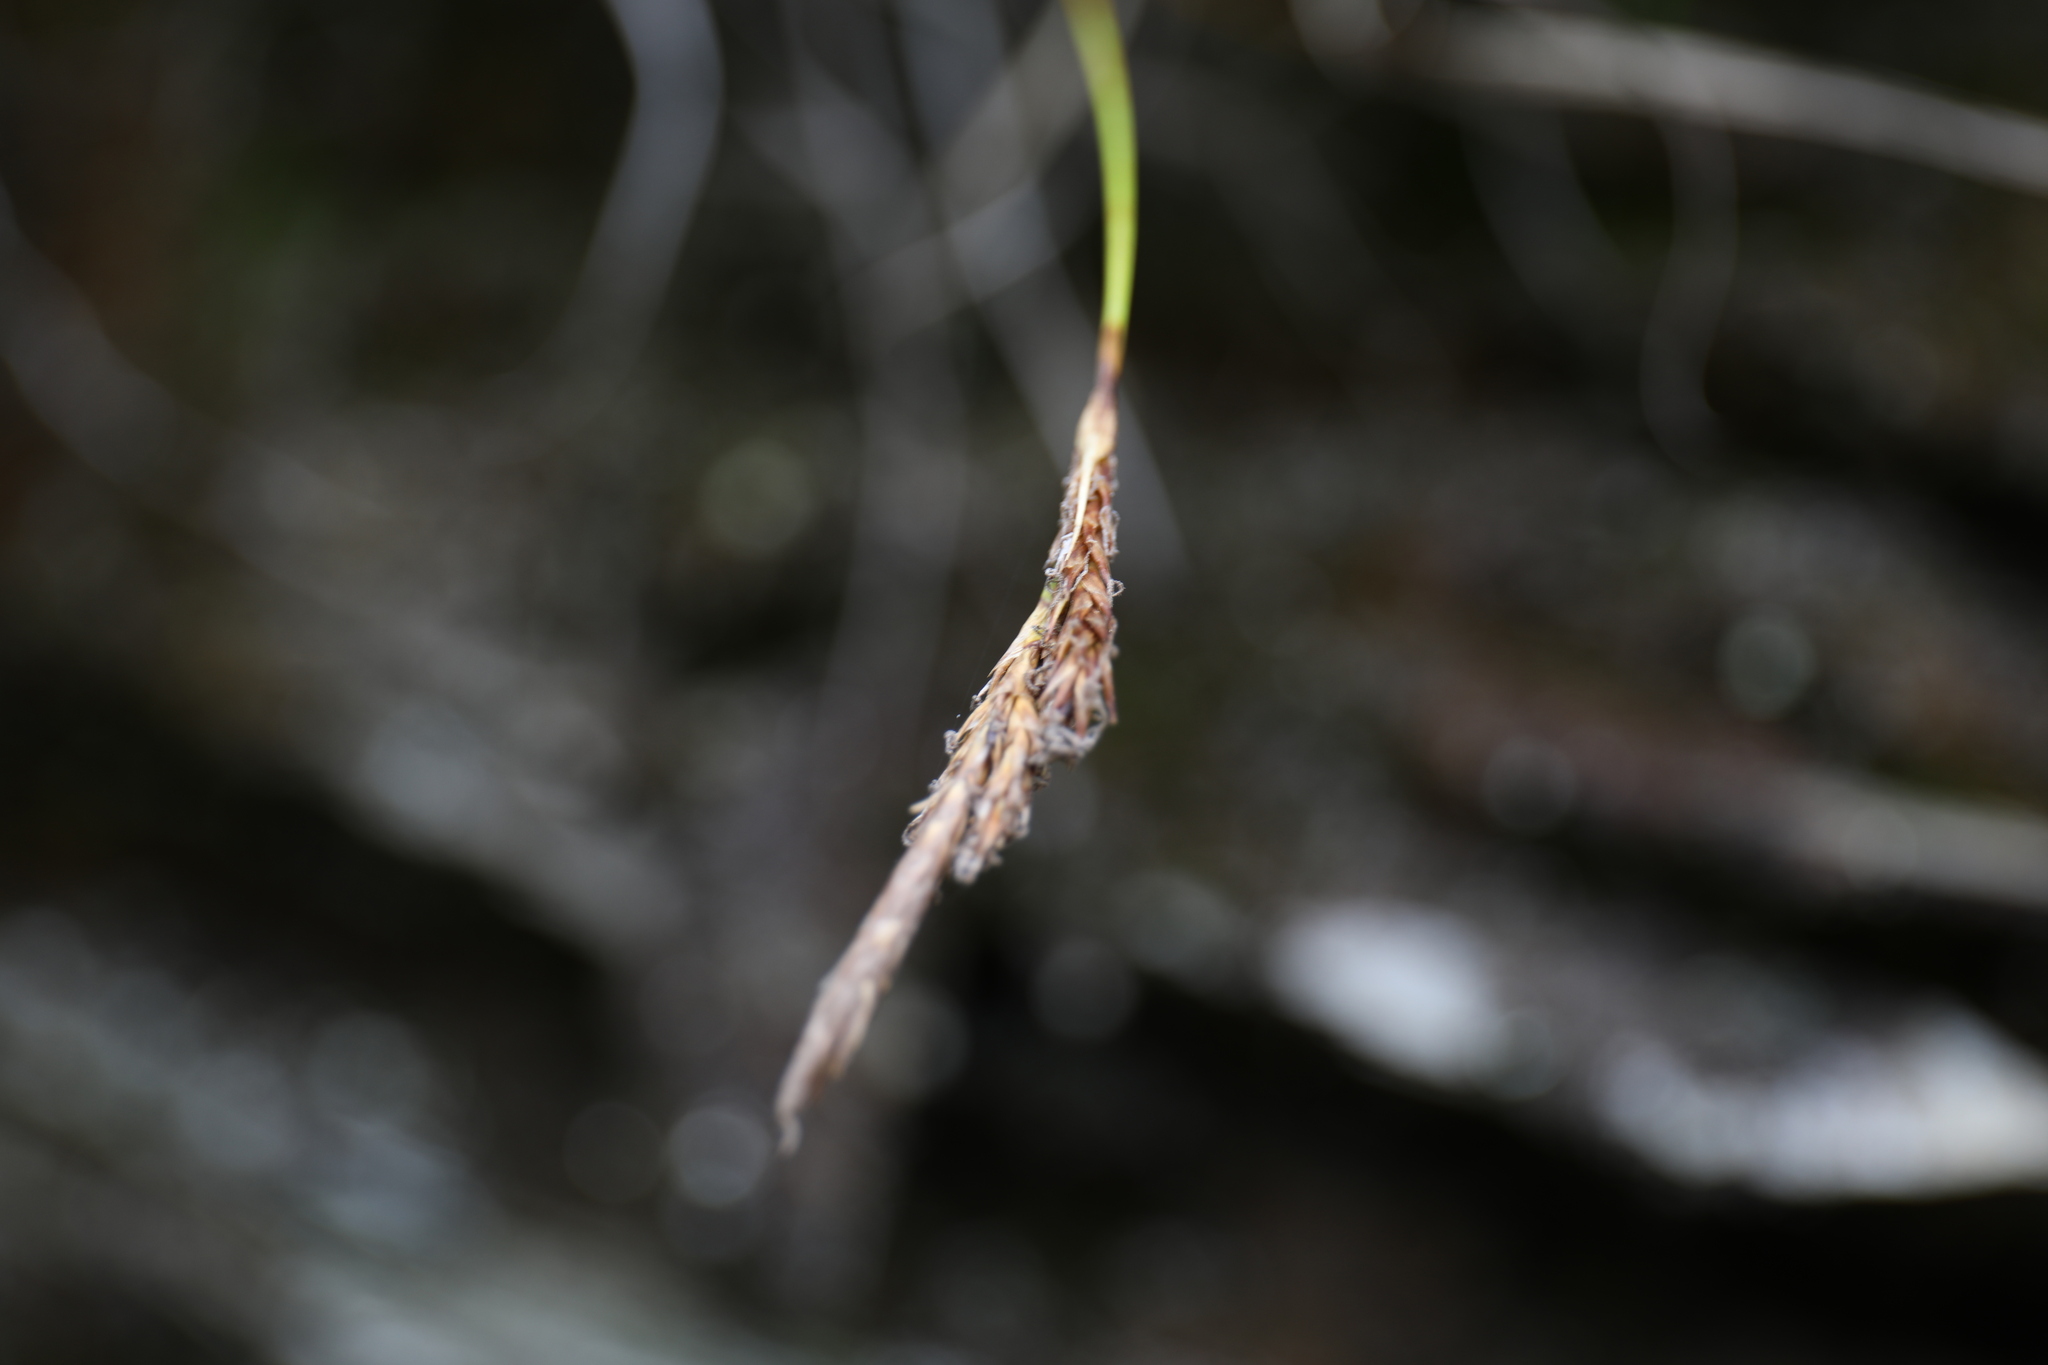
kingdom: Plantae
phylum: Tracheophyta
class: Liliopsida
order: Poales
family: Cyperaceae
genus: Carex
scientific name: Carex chrysolepis
